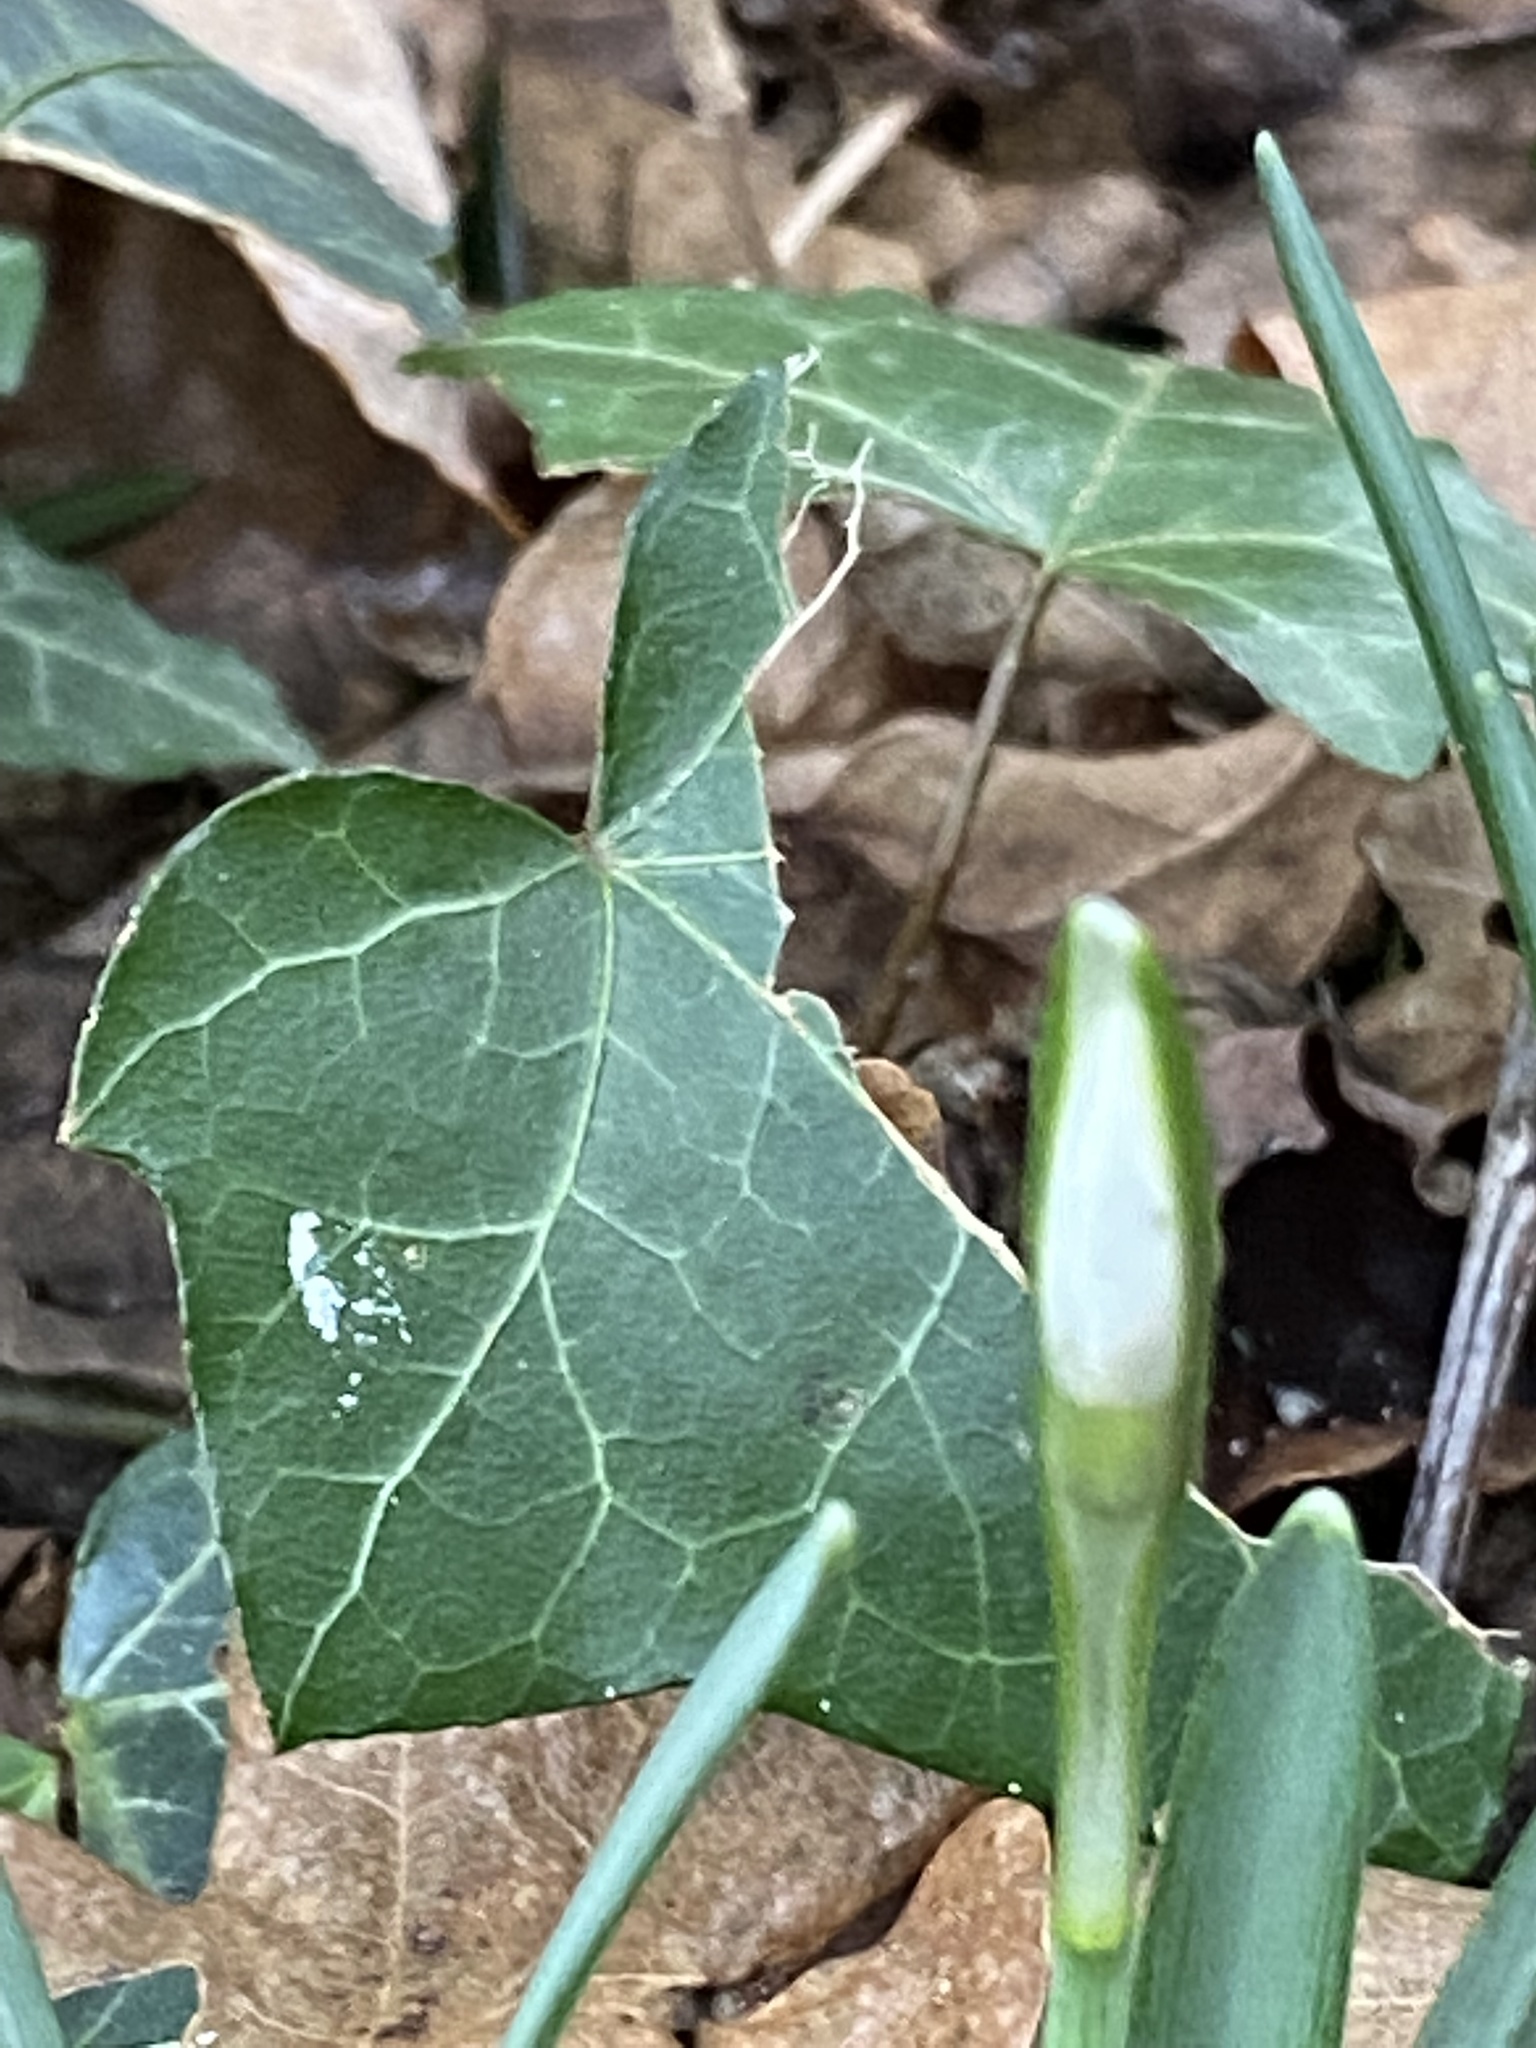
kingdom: Plantae
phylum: Tracheophyta
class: Liliopsida
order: Asparagales
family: Amaryllidaceae
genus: Galanthus
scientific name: Galanthus nivalis
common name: Snowdrop
